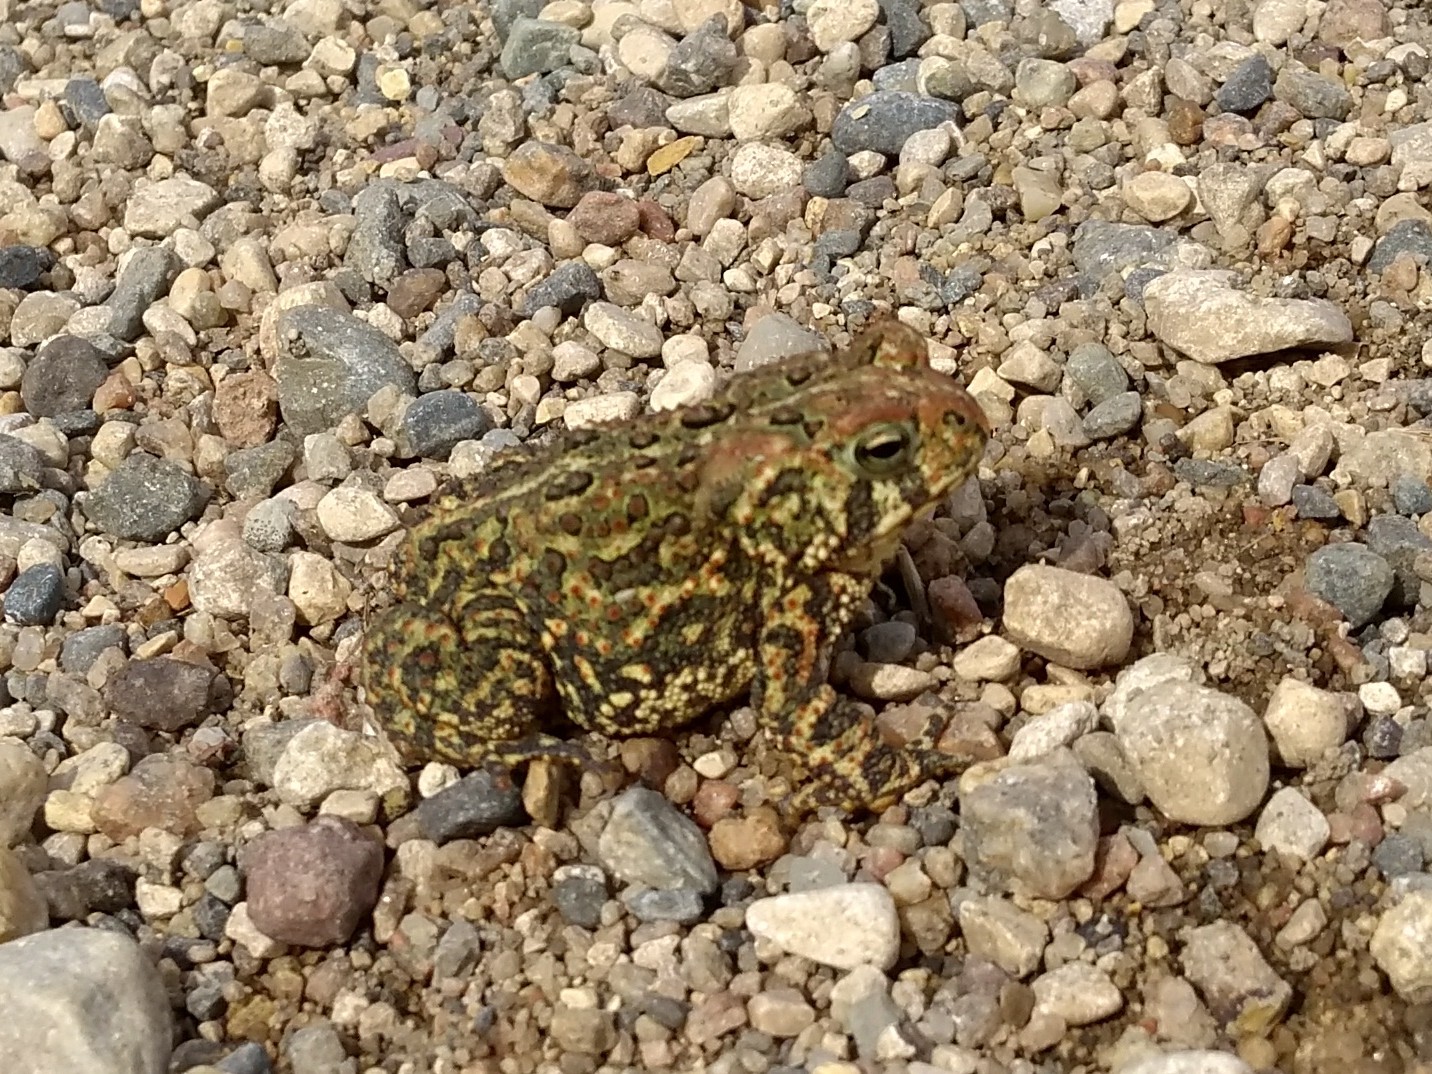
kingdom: Animalia
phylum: Chordata
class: Amphibia
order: Anura
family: Bufonidae
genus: Anaxyrus
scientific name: Anaxyrus hemiophrys
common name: Canadian toad
